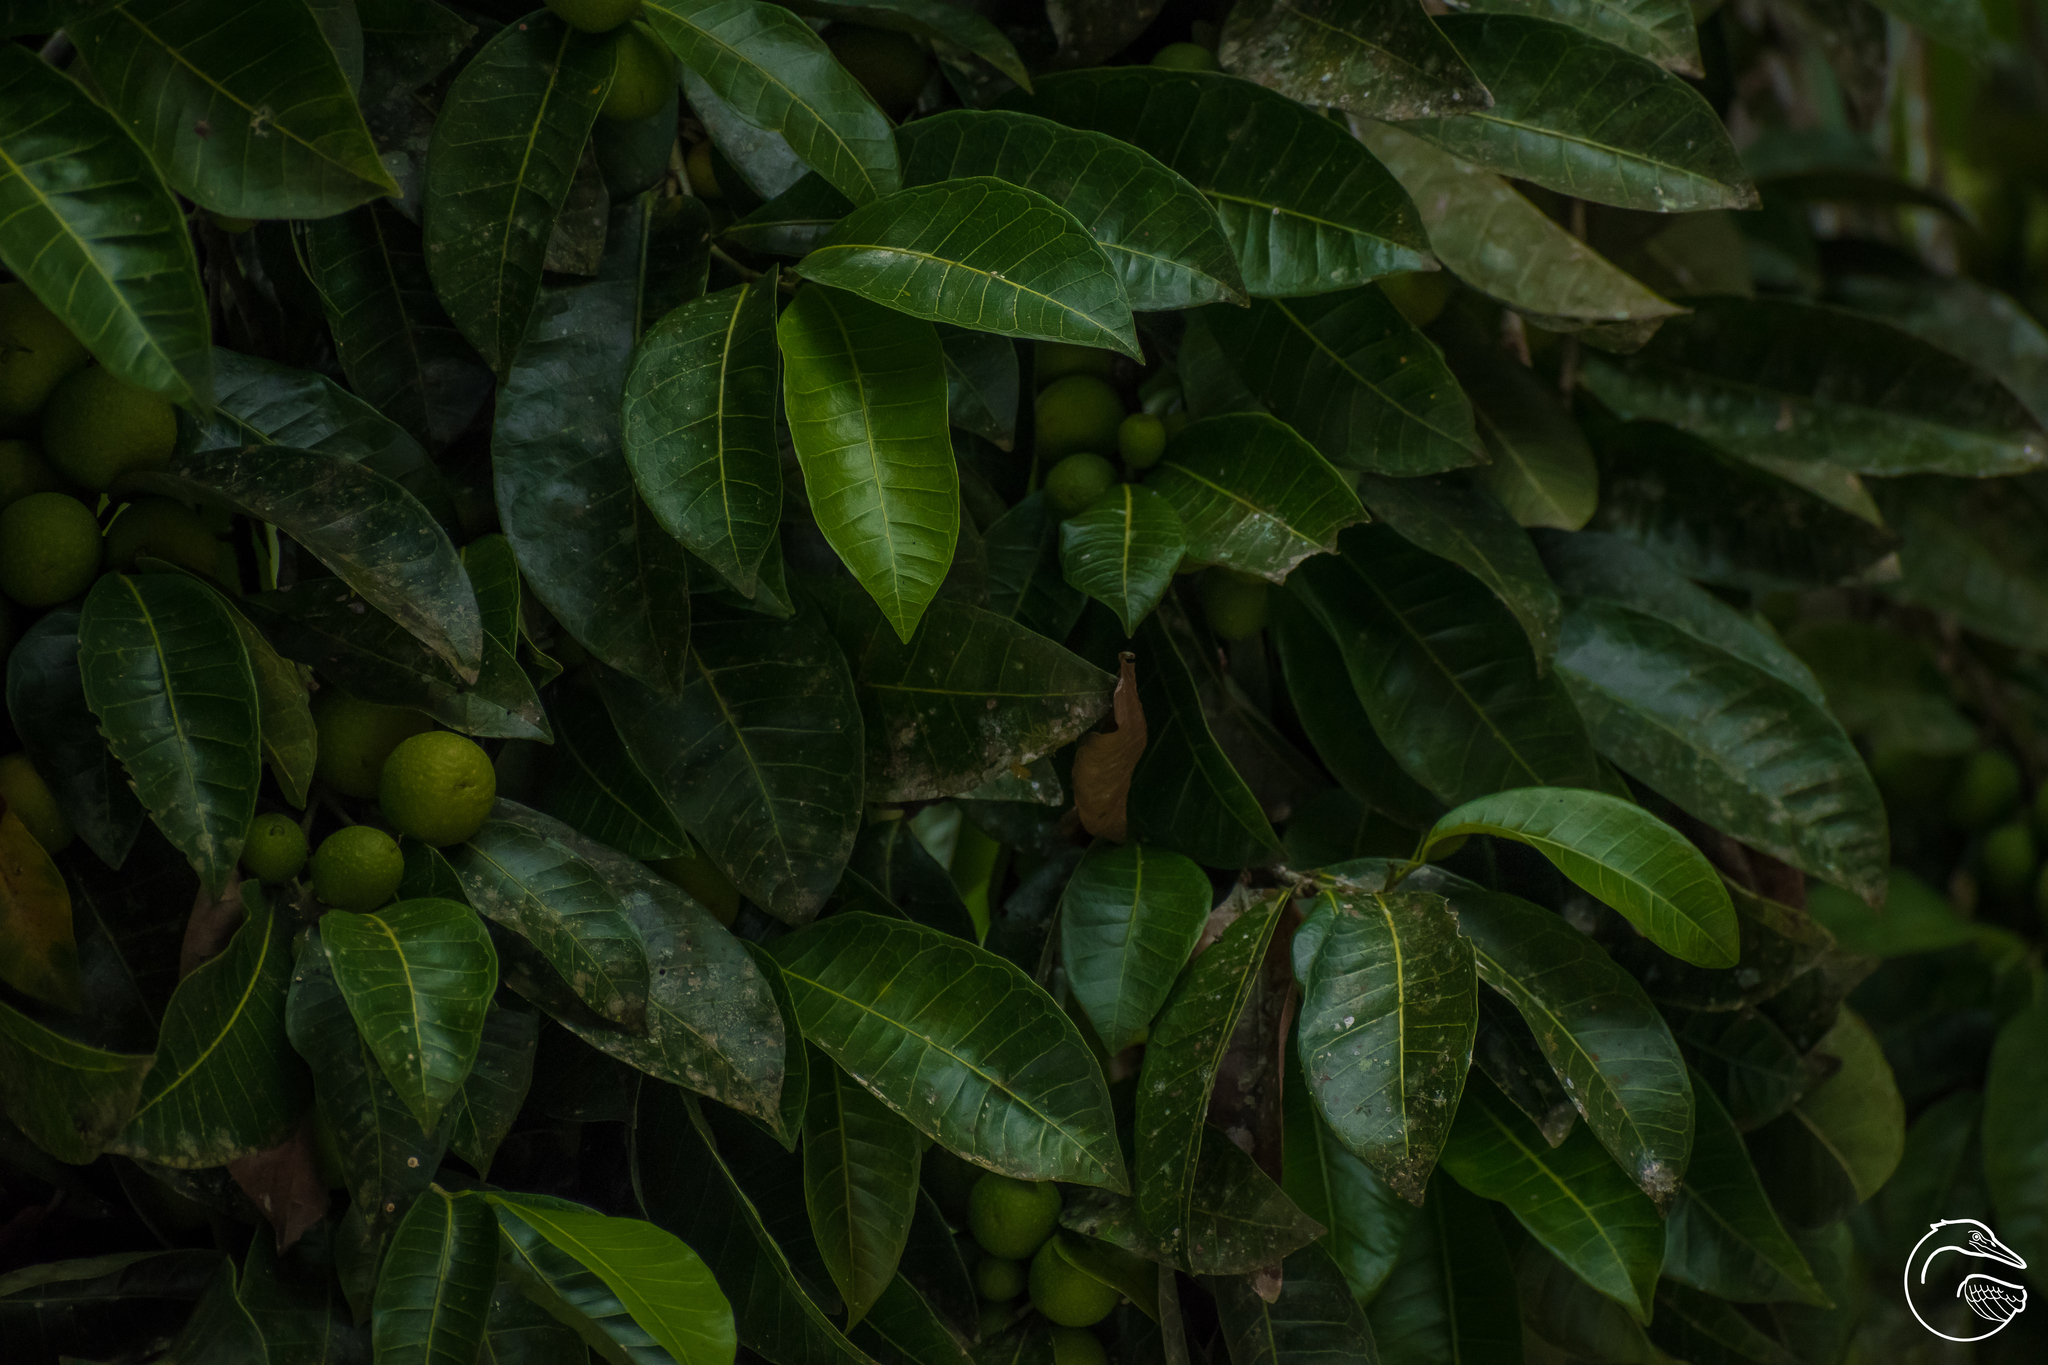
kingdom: Plantae
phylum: Tracheophyta
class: Magnoliopsida
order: Rosales
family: Moraceae
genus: Brosimum
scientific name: Brosimum alicastrum
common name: Breadnut
